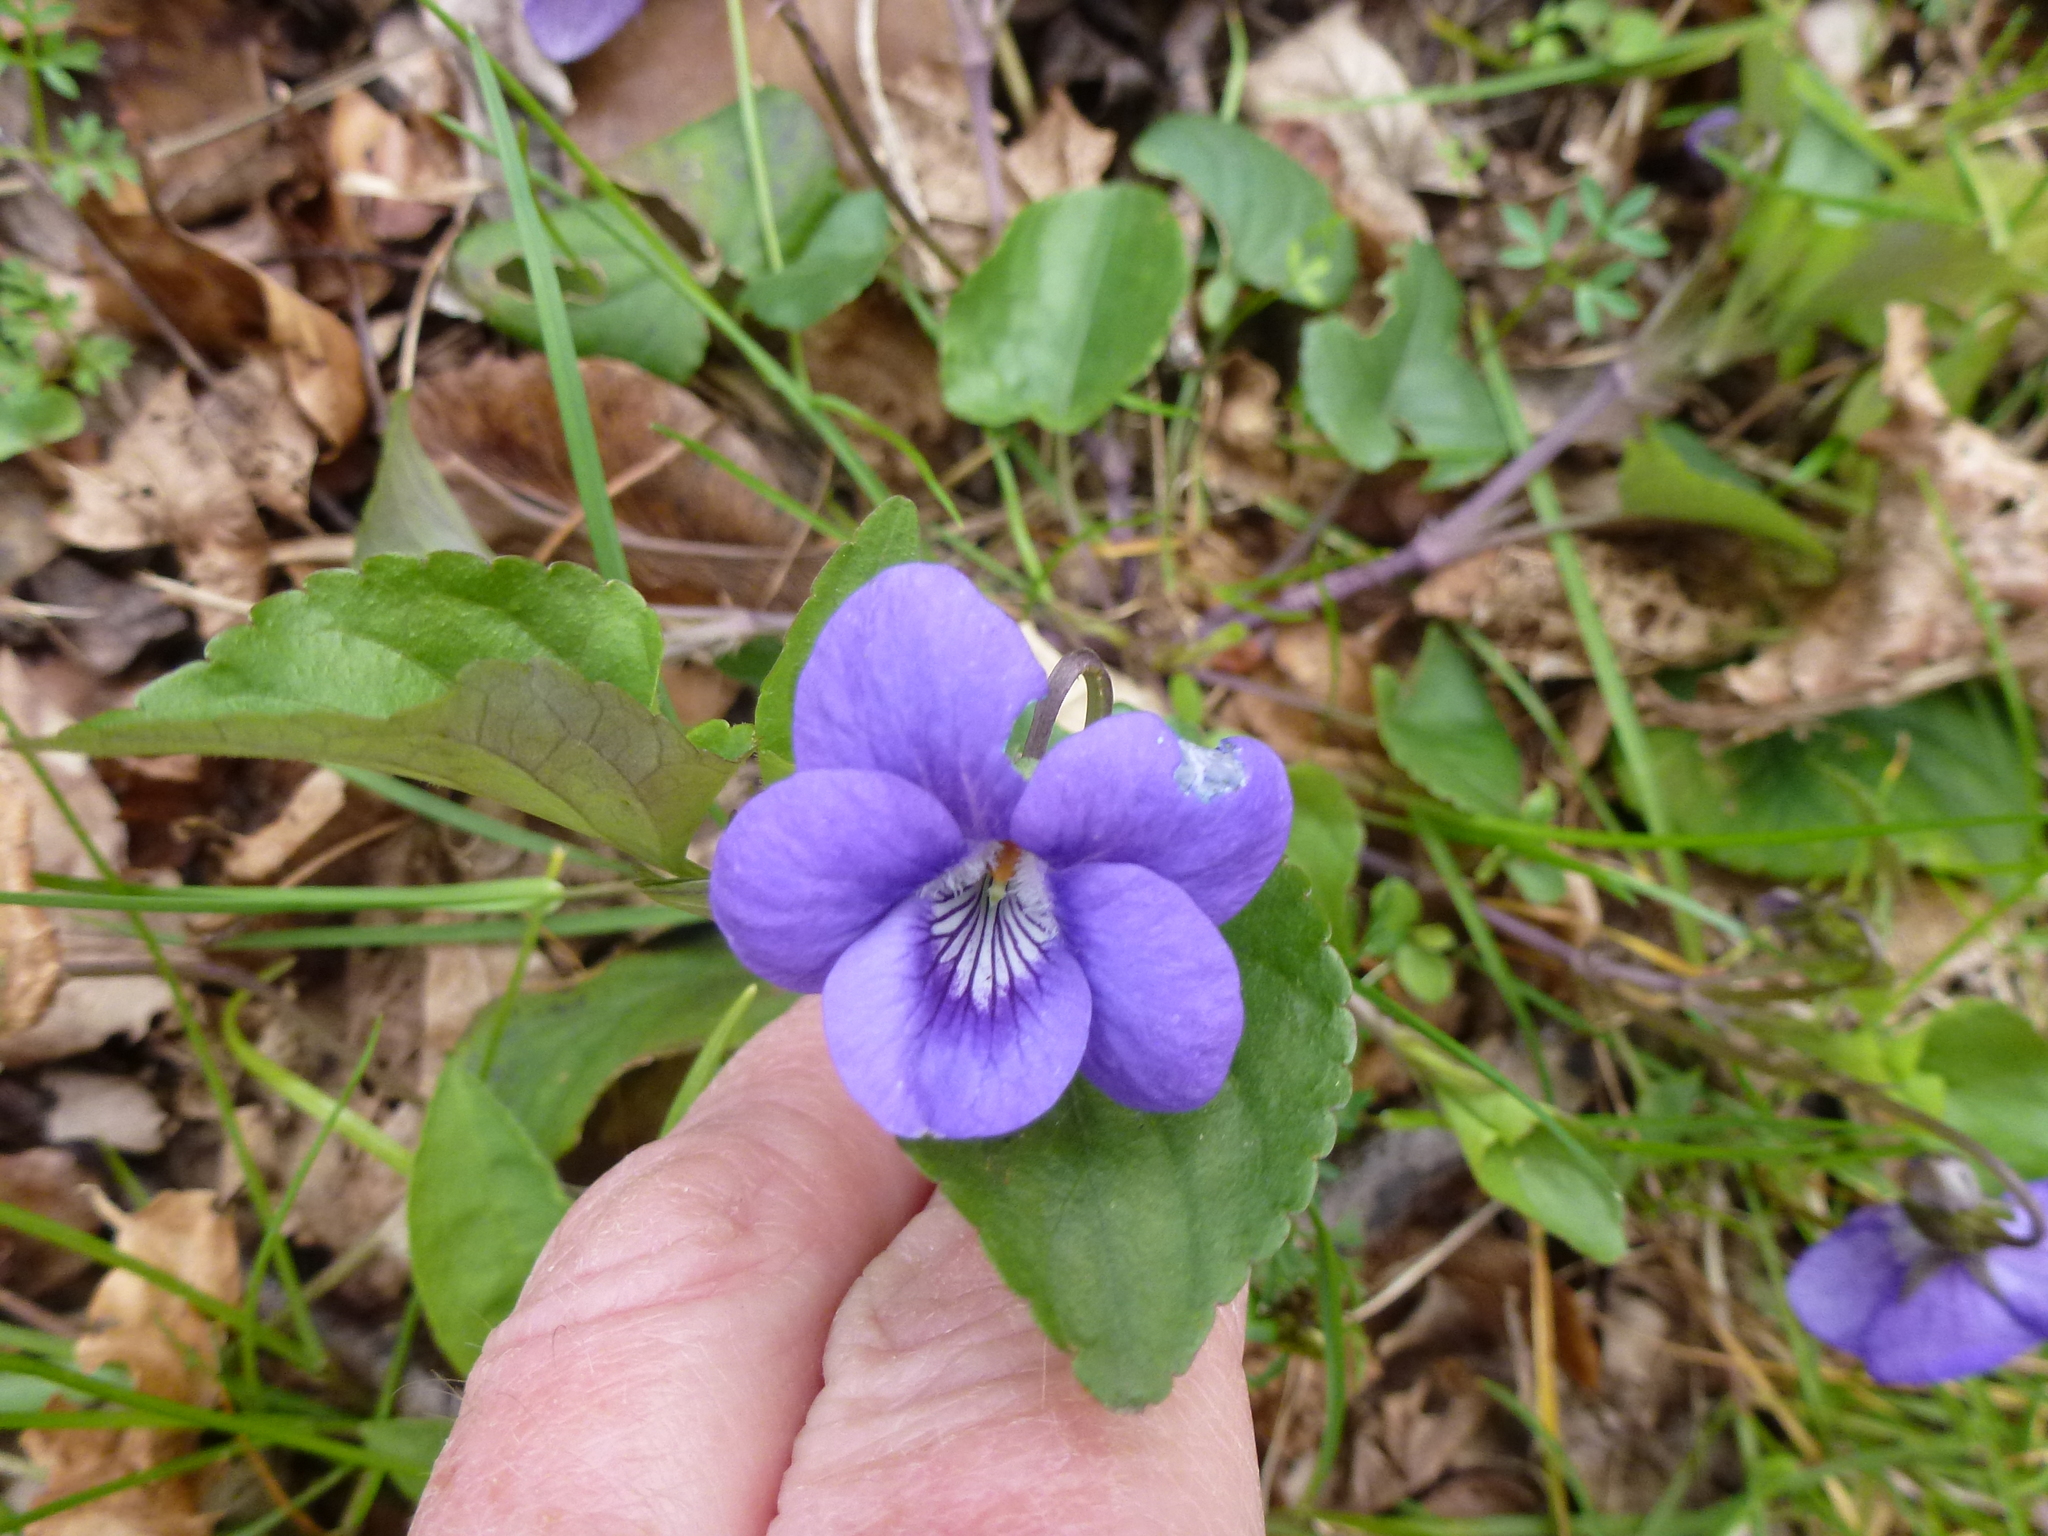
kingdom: Plantae
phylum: Tracheophyta
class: Magnoliopsida
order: Malpighiales
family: Violaceae
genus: Viola
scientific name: Viola riviniana
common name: Common dog-violet
